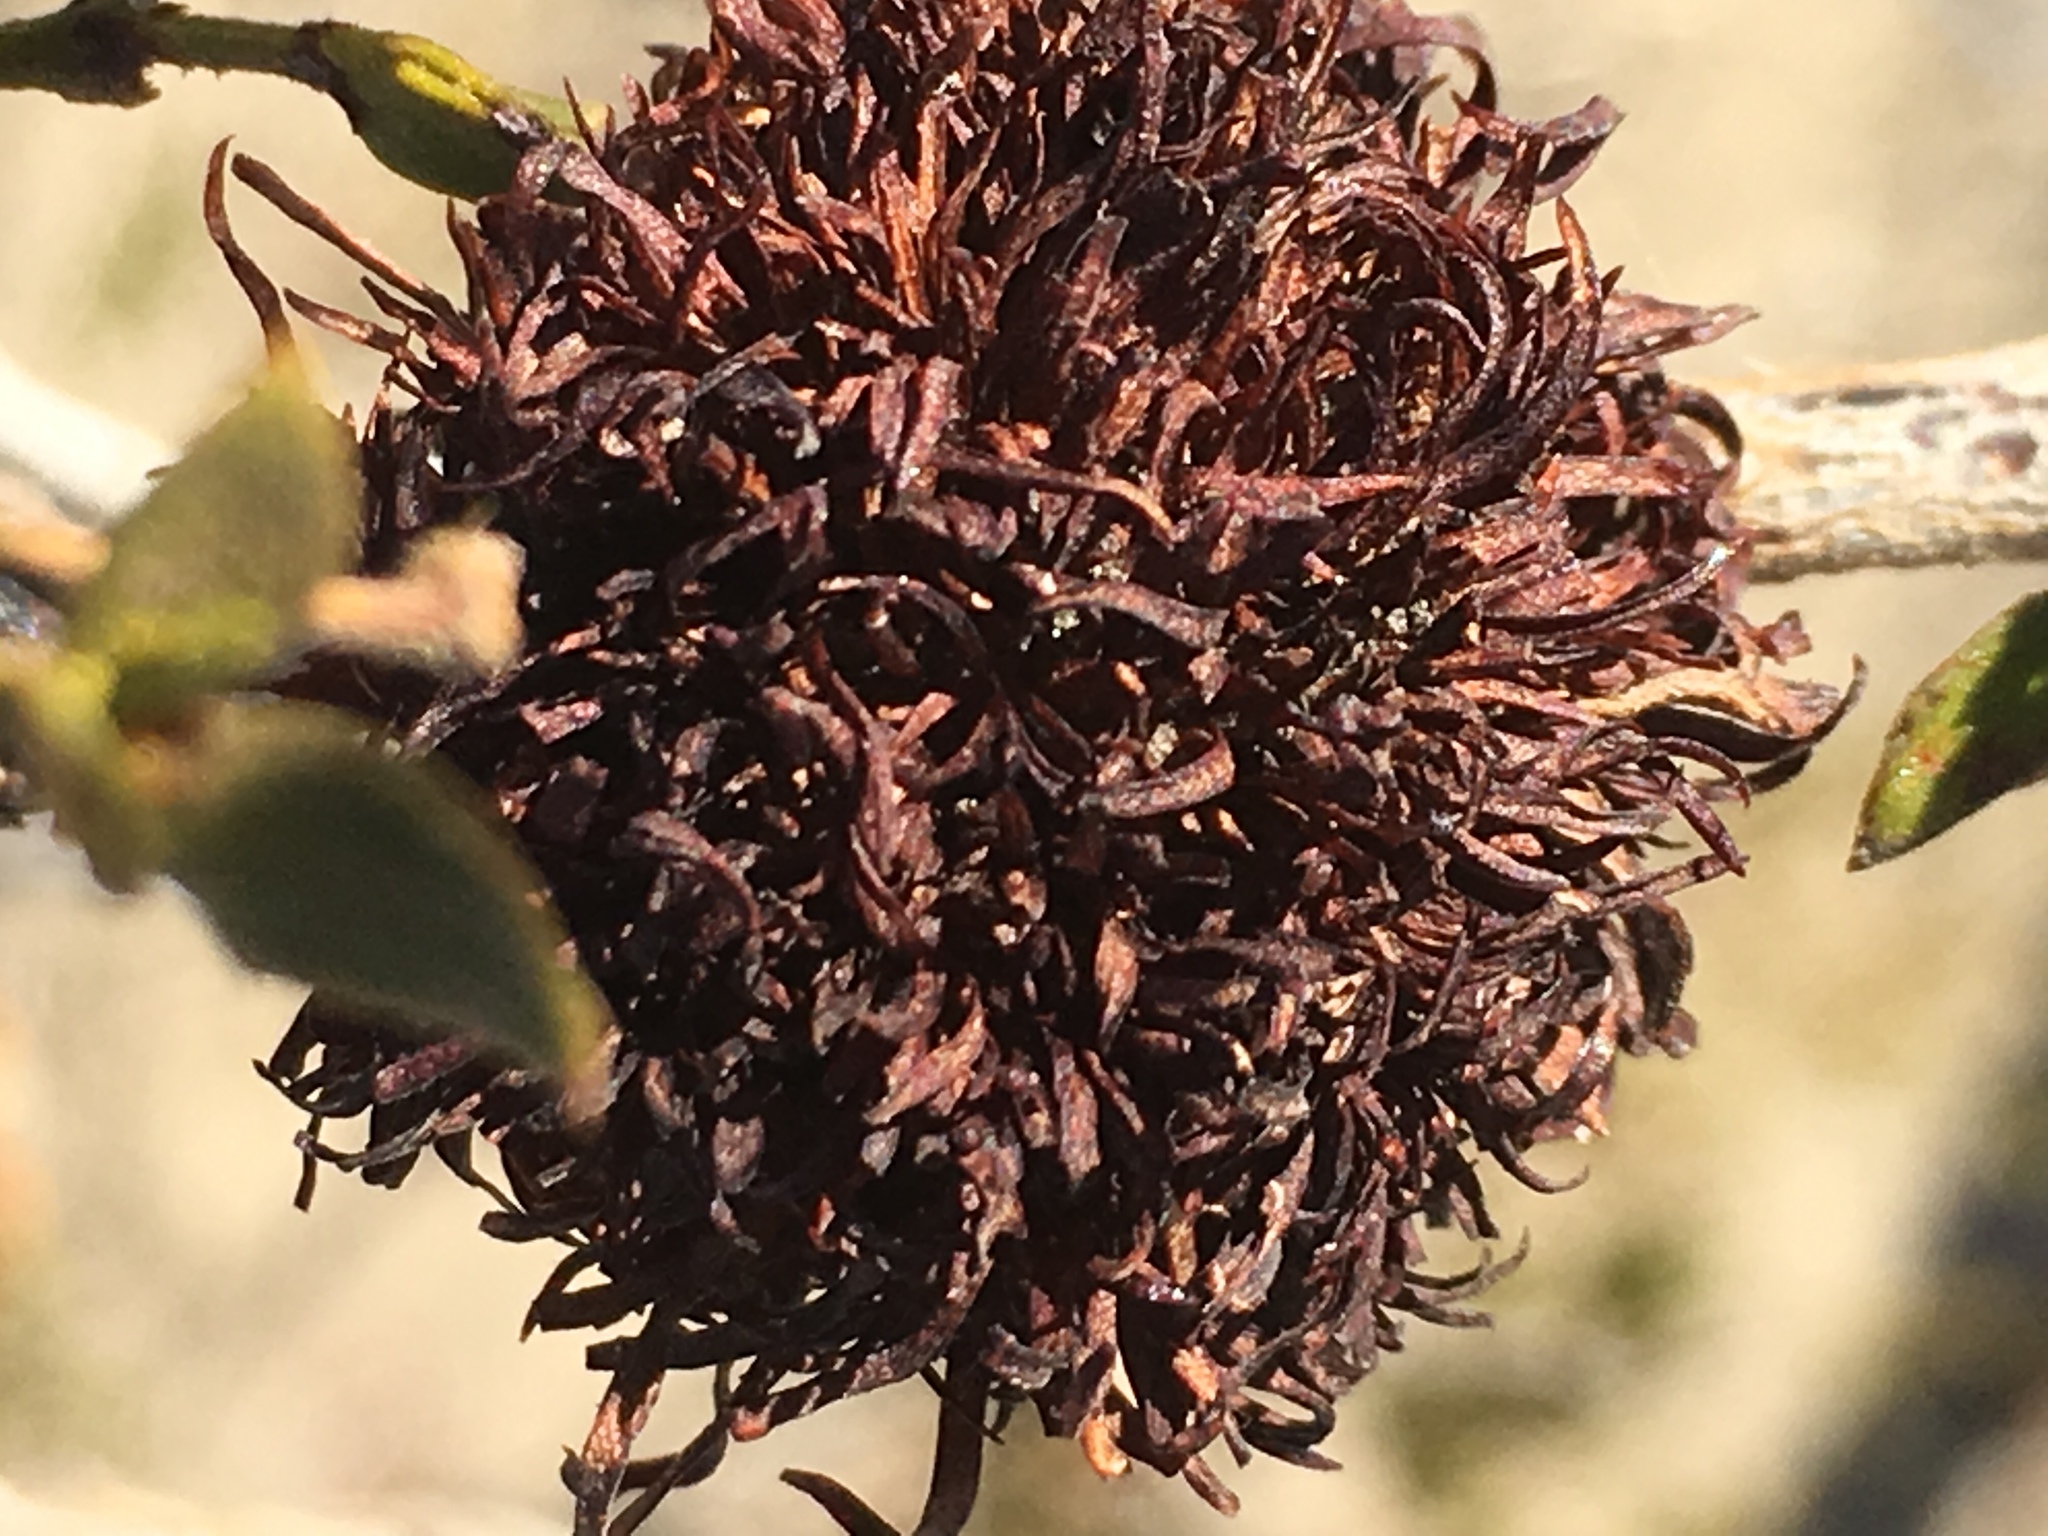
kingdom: Animalia
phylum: Arthropoda
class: Insecta
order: Diptera
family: Cecidomyiidae
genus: Asphondylia
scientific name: Asphondylia auripila
